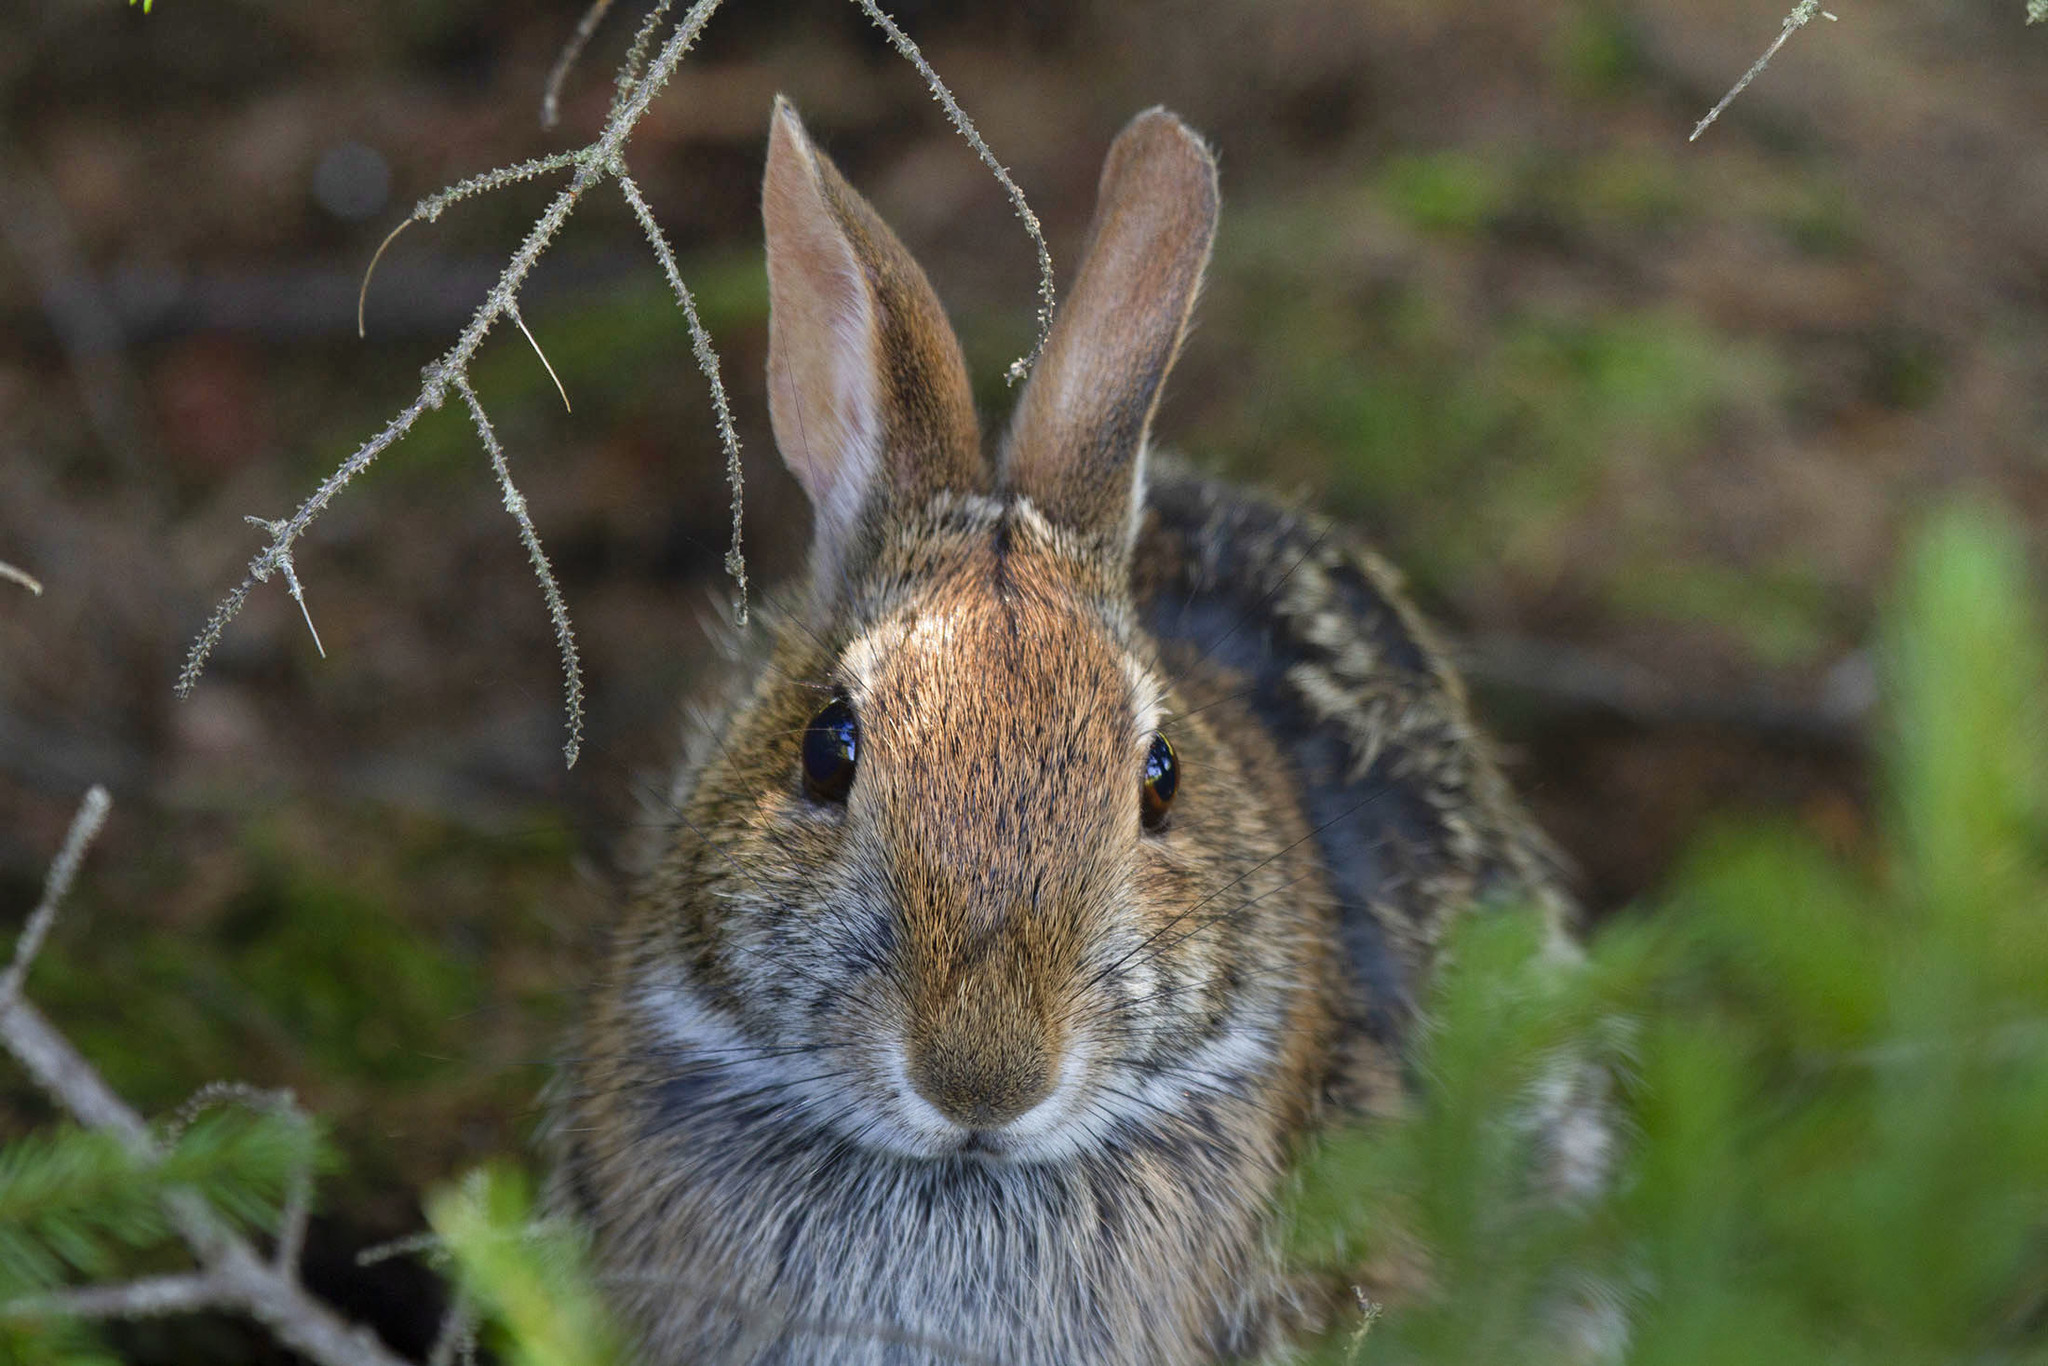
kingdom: Animalia
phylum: Chordata
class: Mammalia
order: Lagomorpha
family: Leporidae
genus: Sylvilagus
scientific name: Sylvilagus obscurus
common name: Appalachian cottontail
